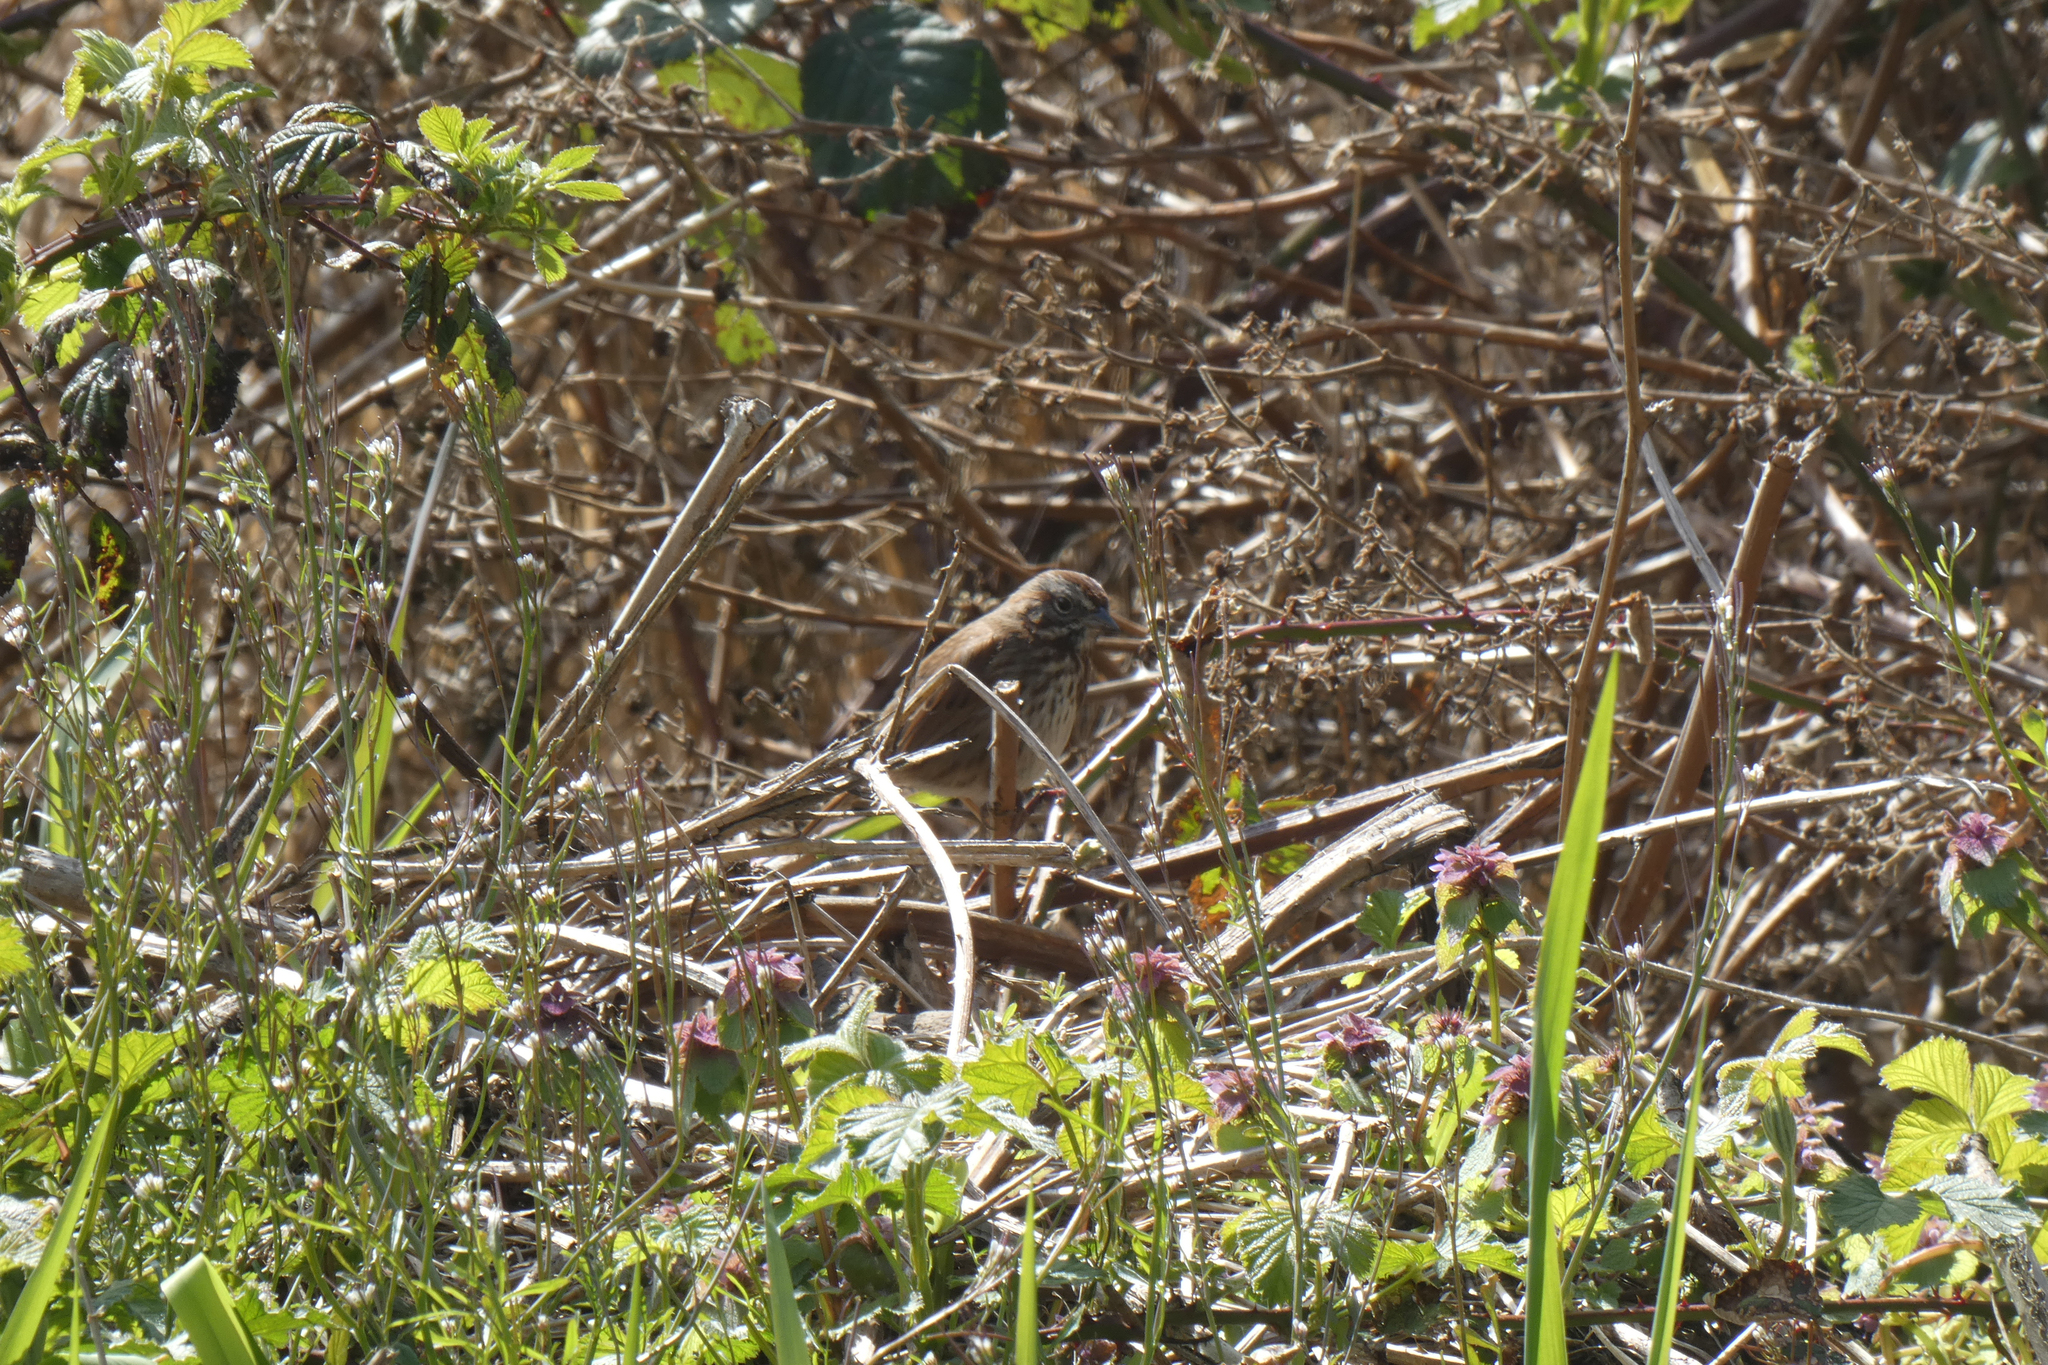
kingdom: Animalia
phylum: Chordata
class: Aves
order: Passeriformes
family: Passerellidae
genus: Melospiza
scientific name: Melospiza melodia
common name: Song sparrow
